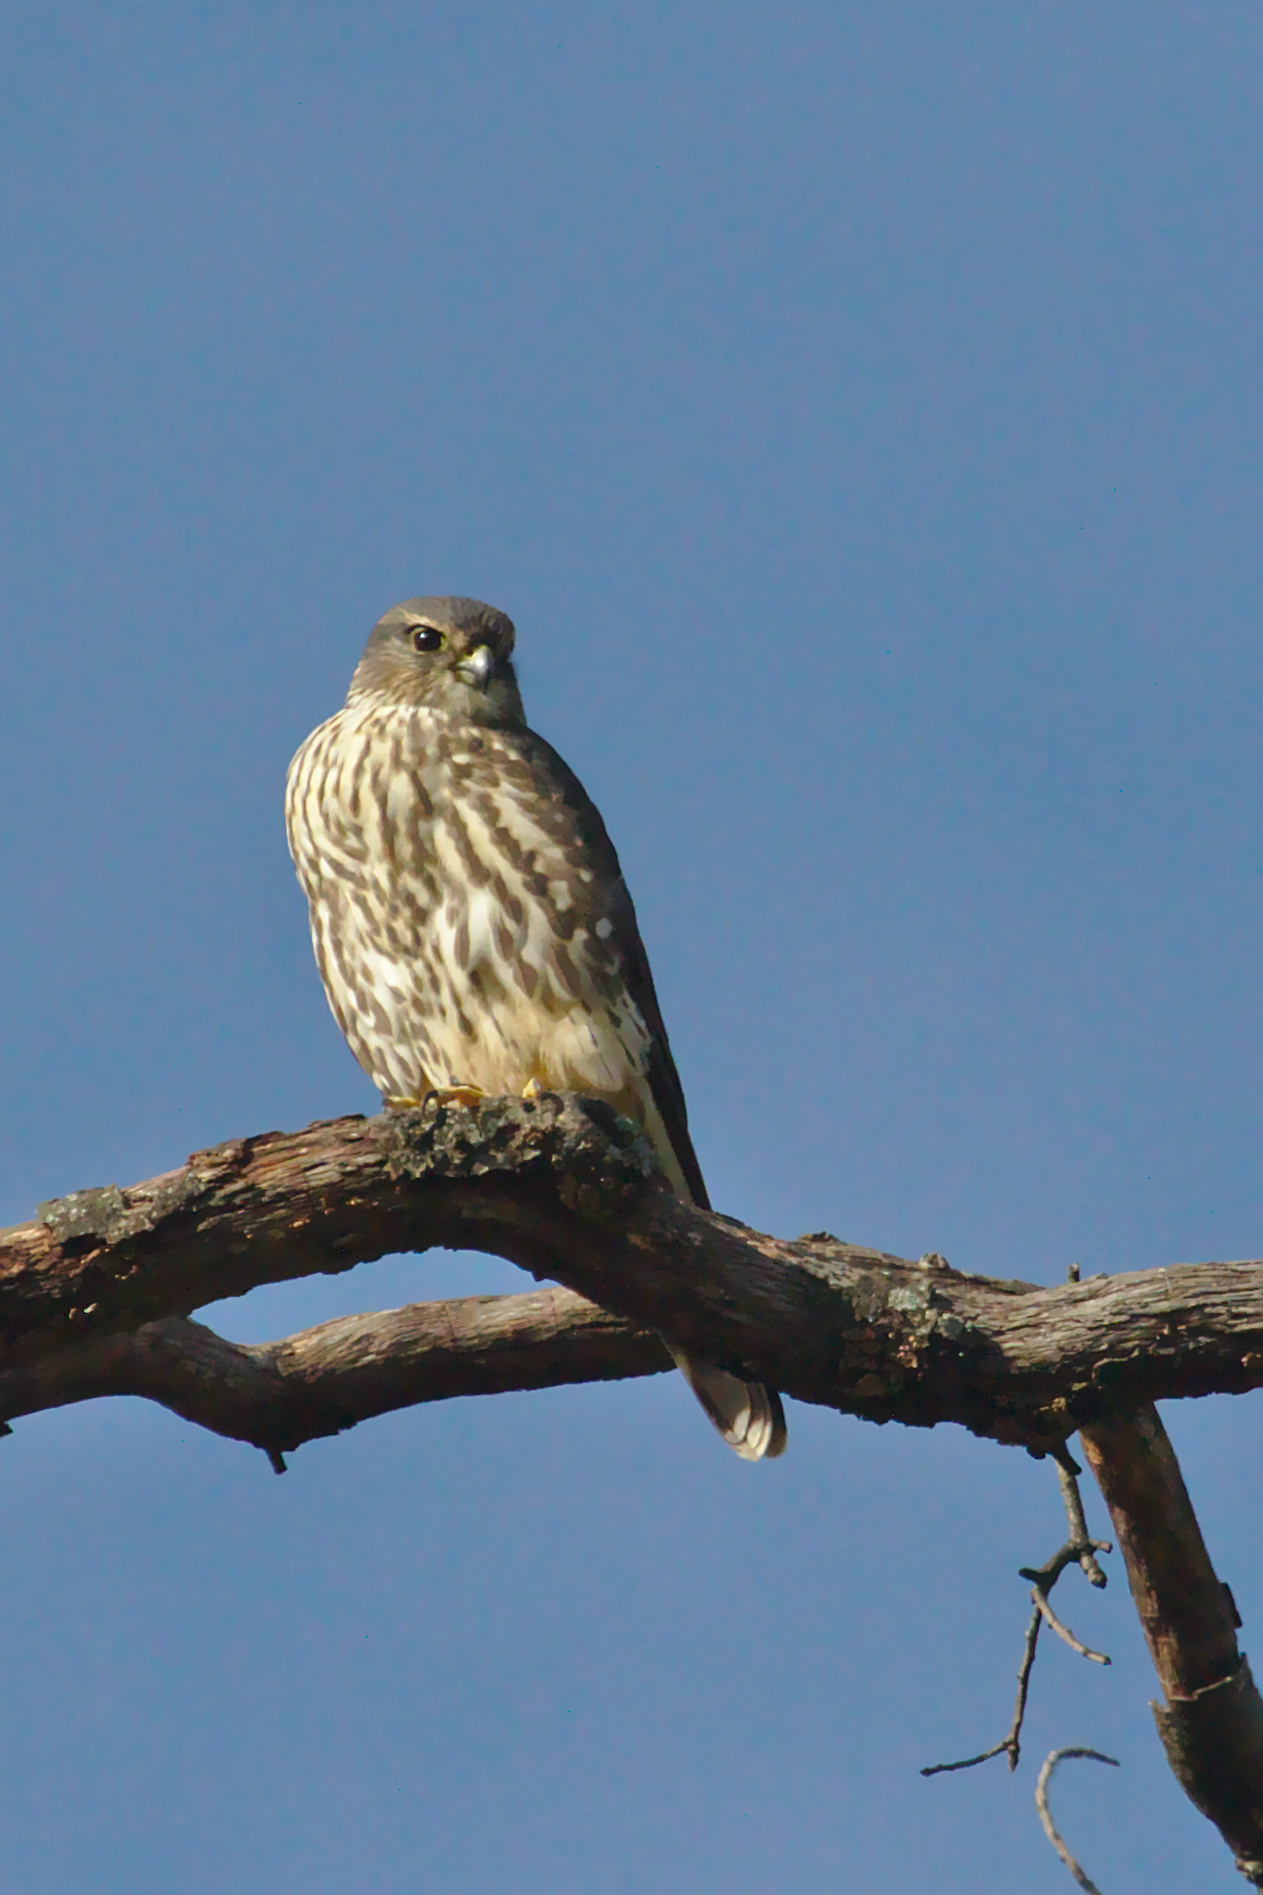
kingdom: Animalia
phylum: Chordata
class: Aves
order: Falconiformes
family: Falconidae
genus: Falco
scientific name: Falco columbarius
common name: Merlin
